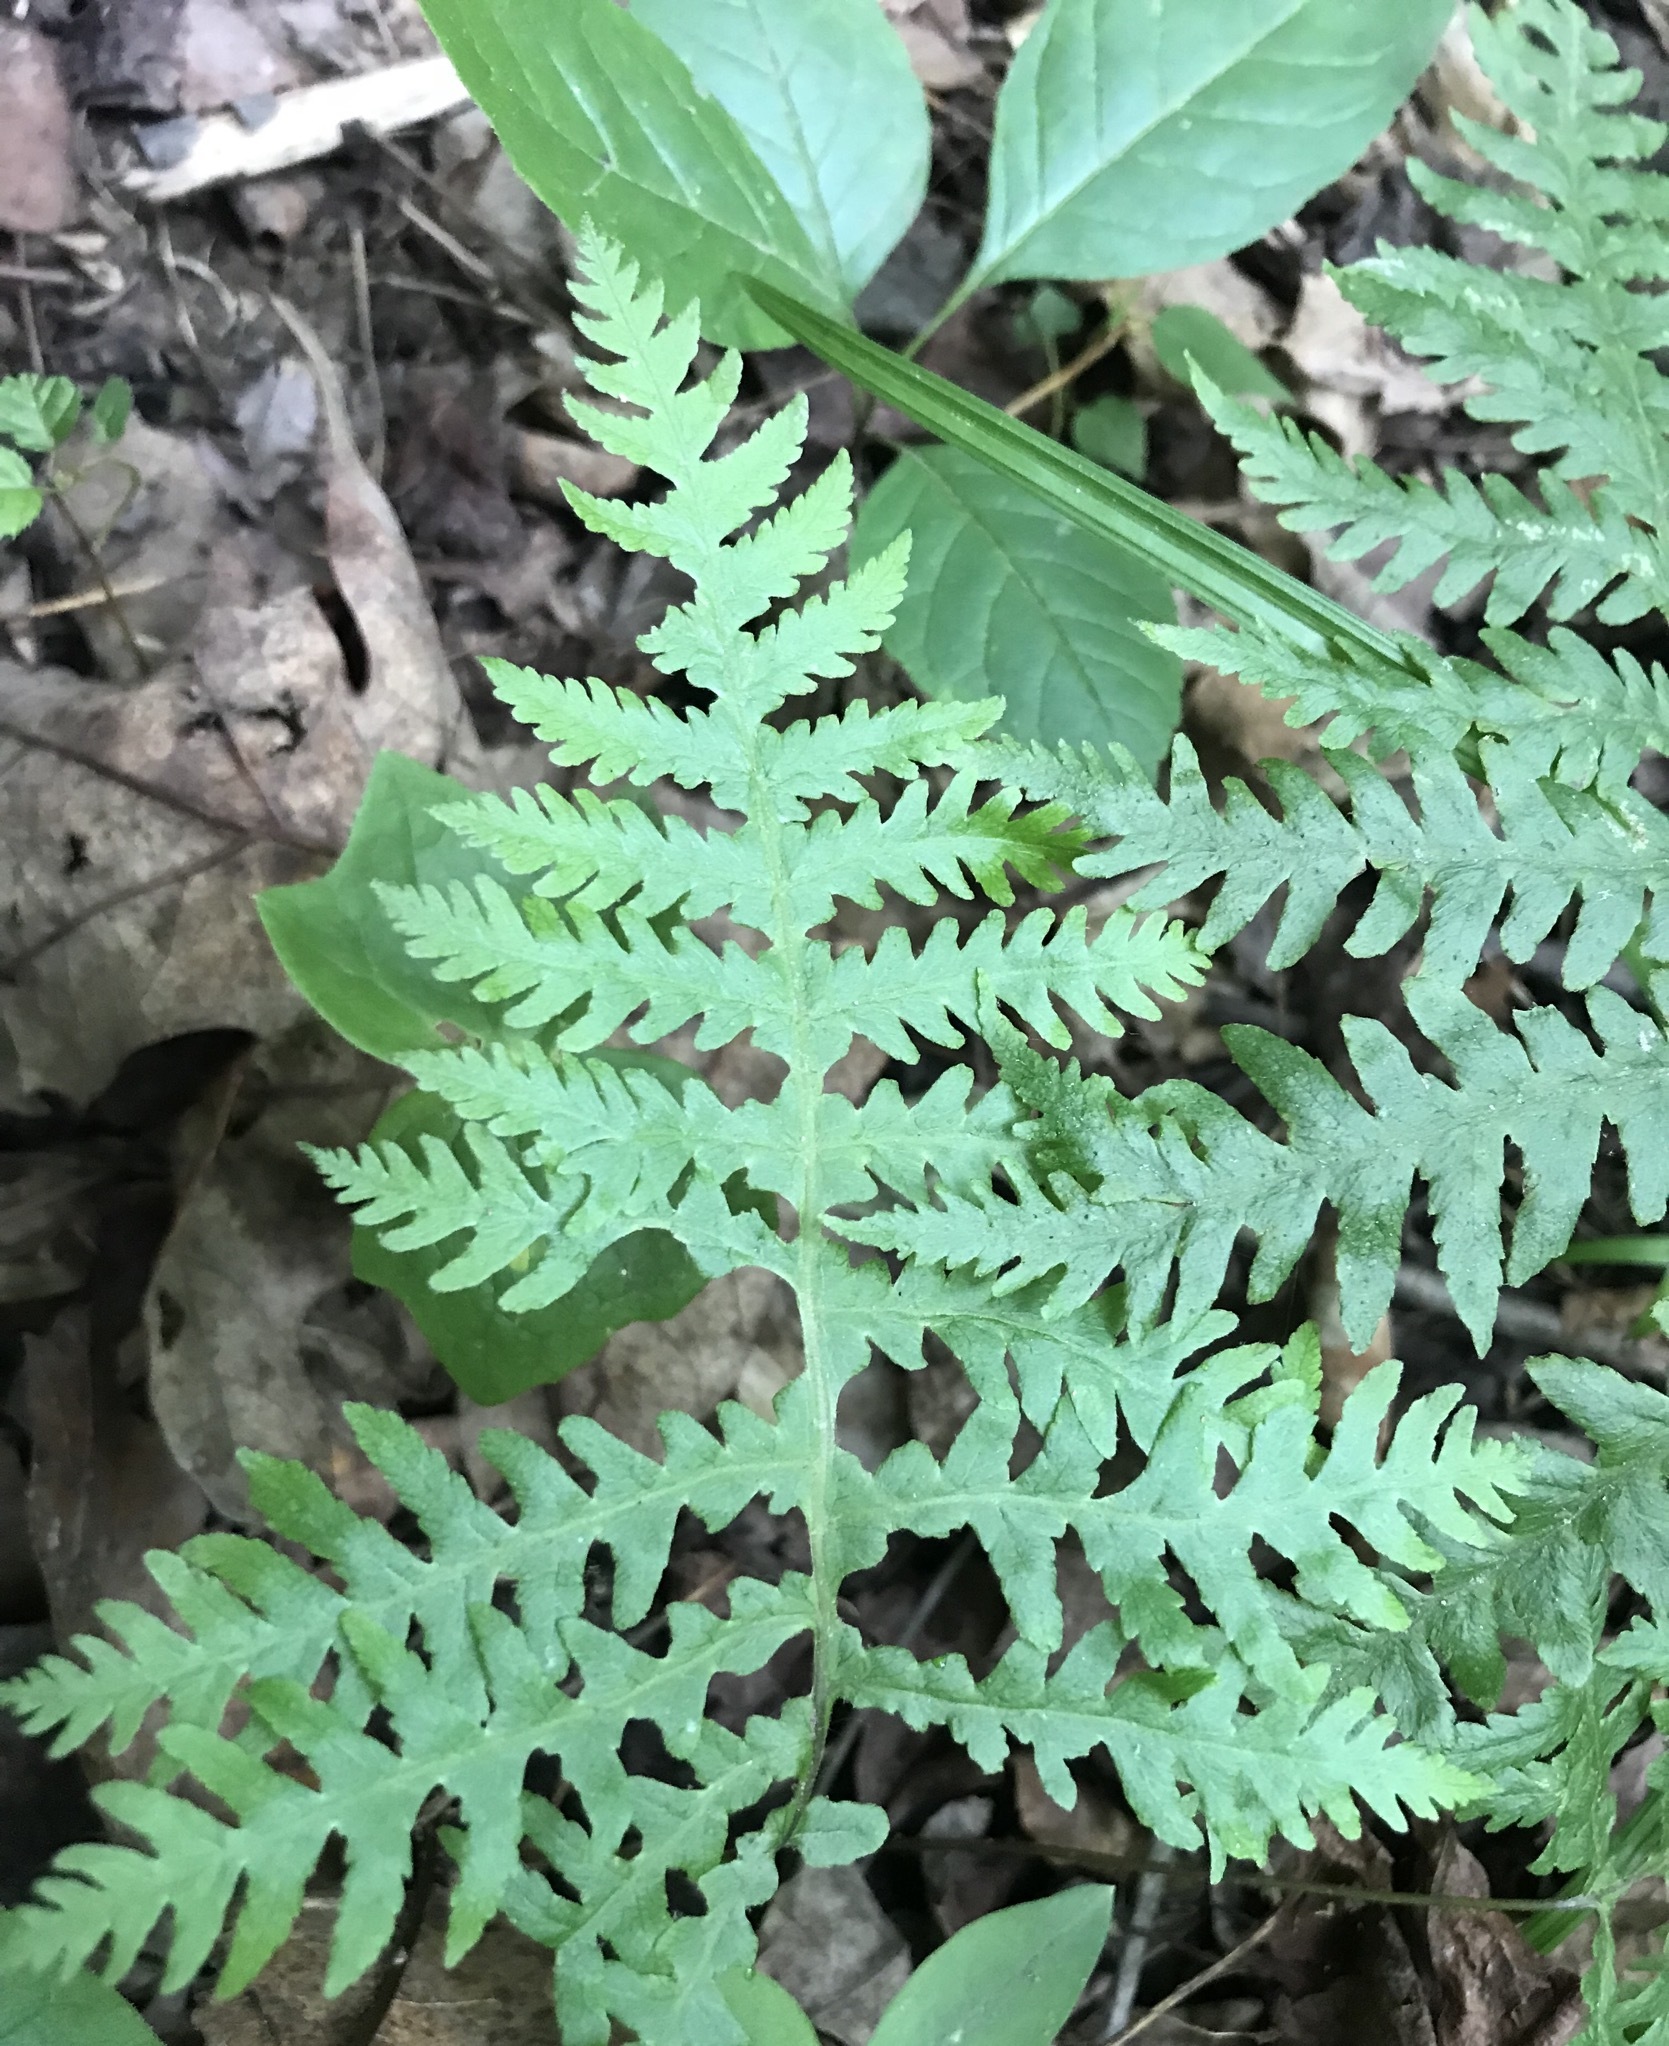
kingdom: Plantae
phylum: Tracheophyta
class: Polypodiopsida
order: Polypodiales
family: Thelypteridaceae
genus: Phegopteris
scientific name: Phegopteris hexagonoptera
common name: Broad beech fern
